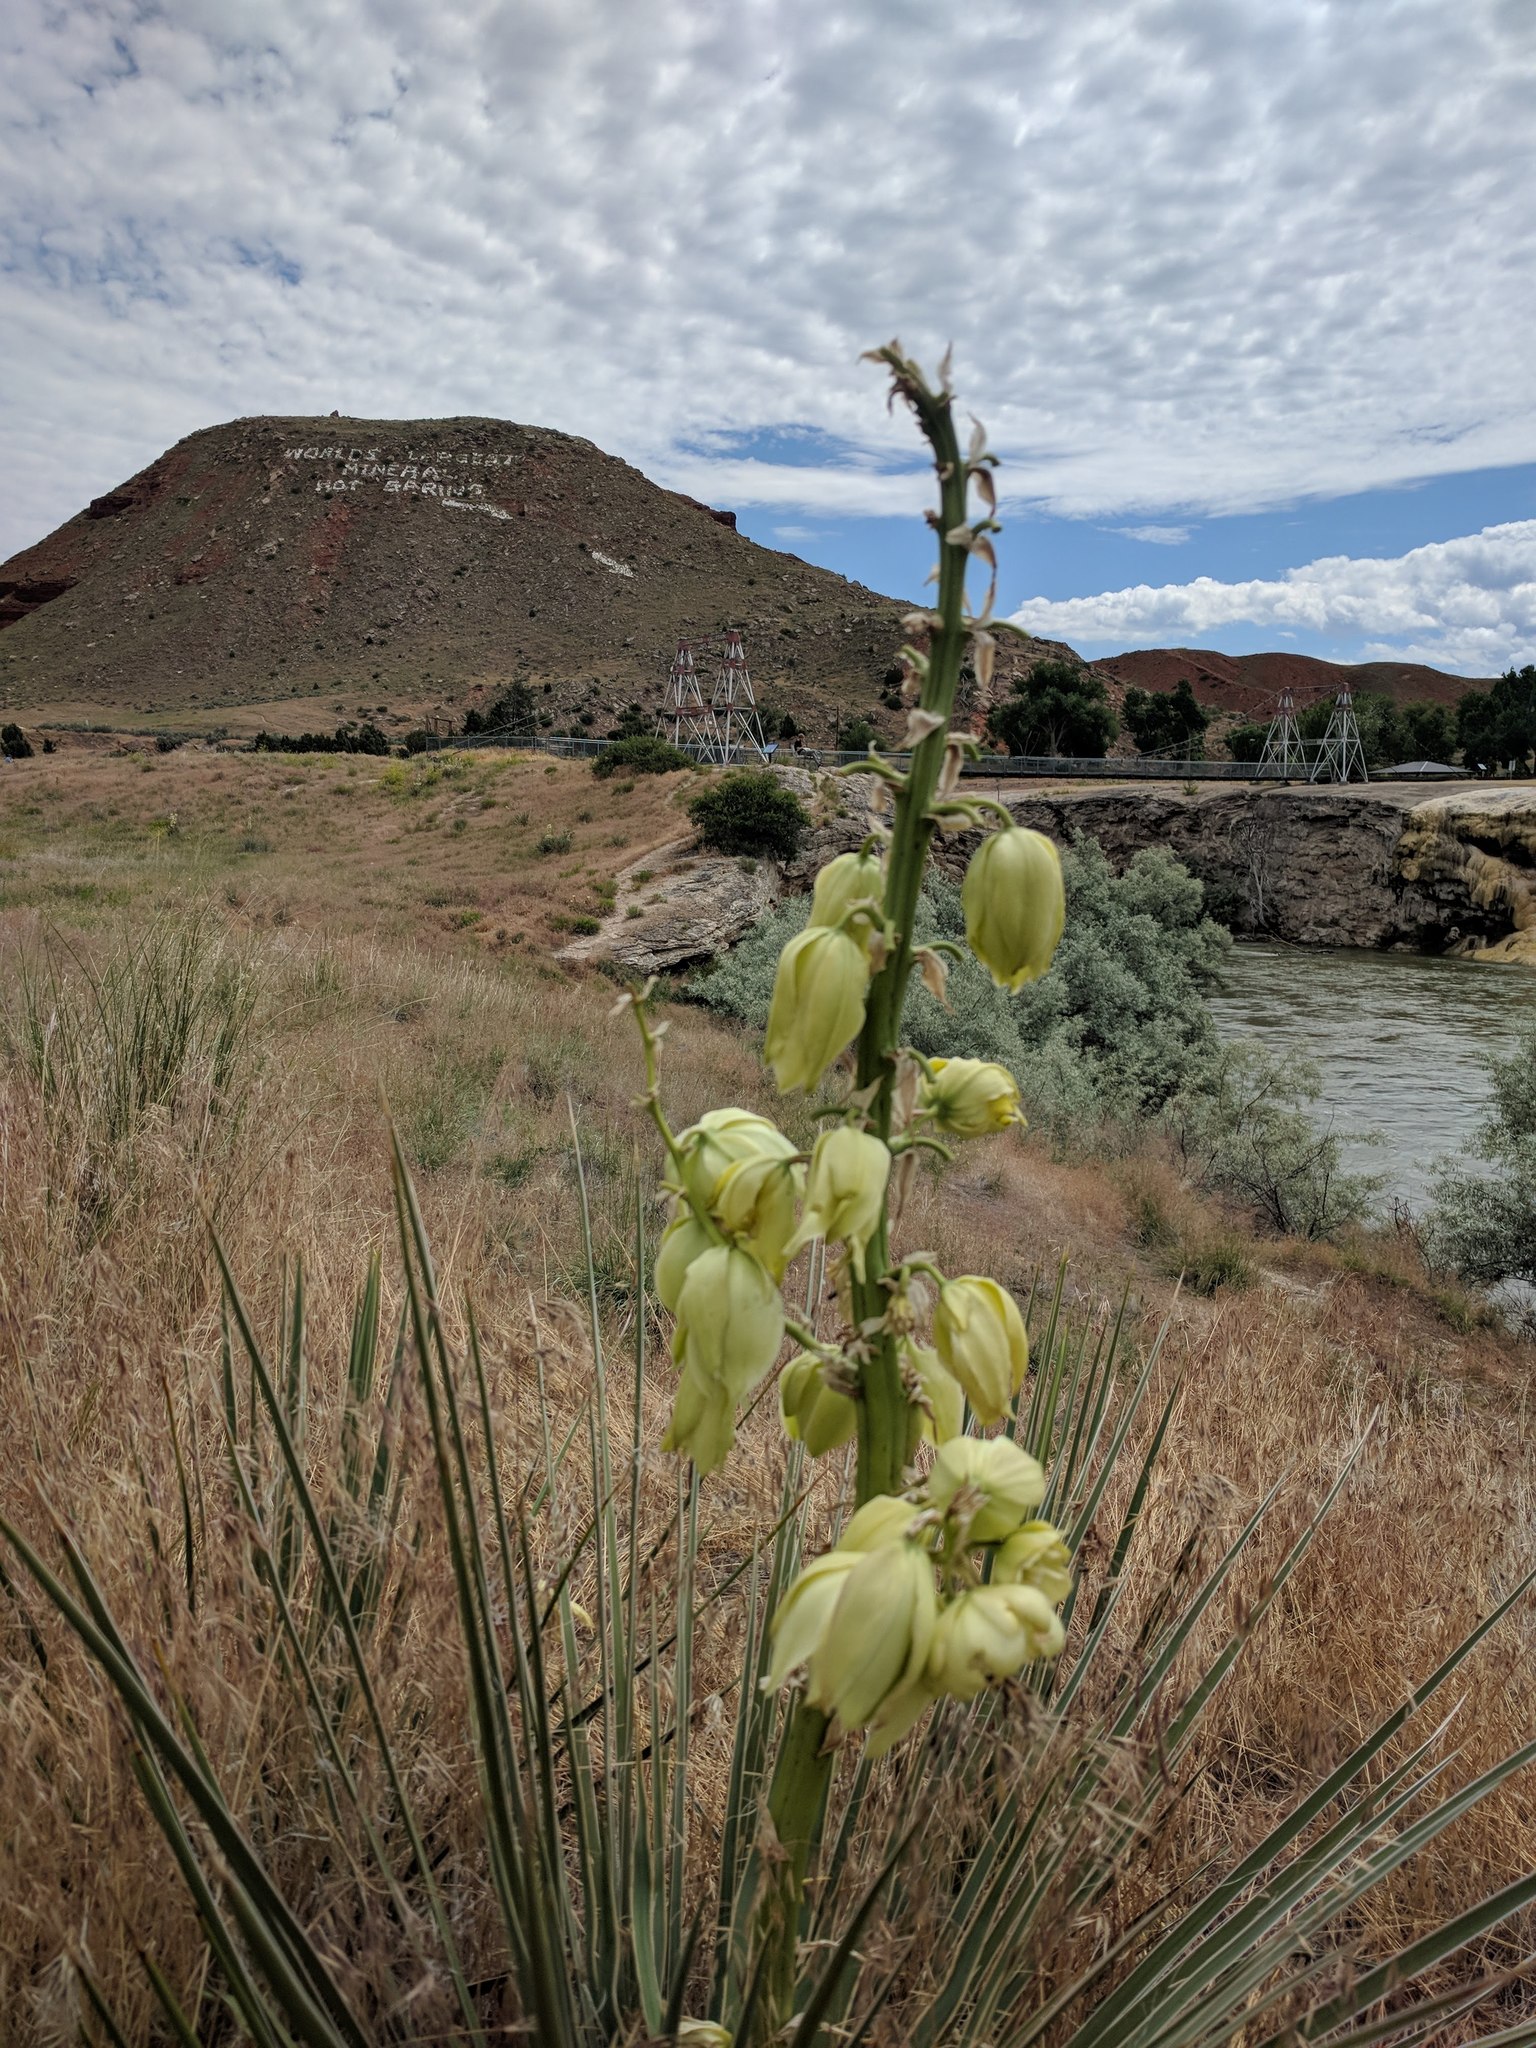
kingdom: Plantae
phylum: Tracheophyta
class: Liliopsida
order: Asparagales
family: Asparagaceae
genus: Yucca
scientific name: Yucca glauca
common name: Great plains yucca
